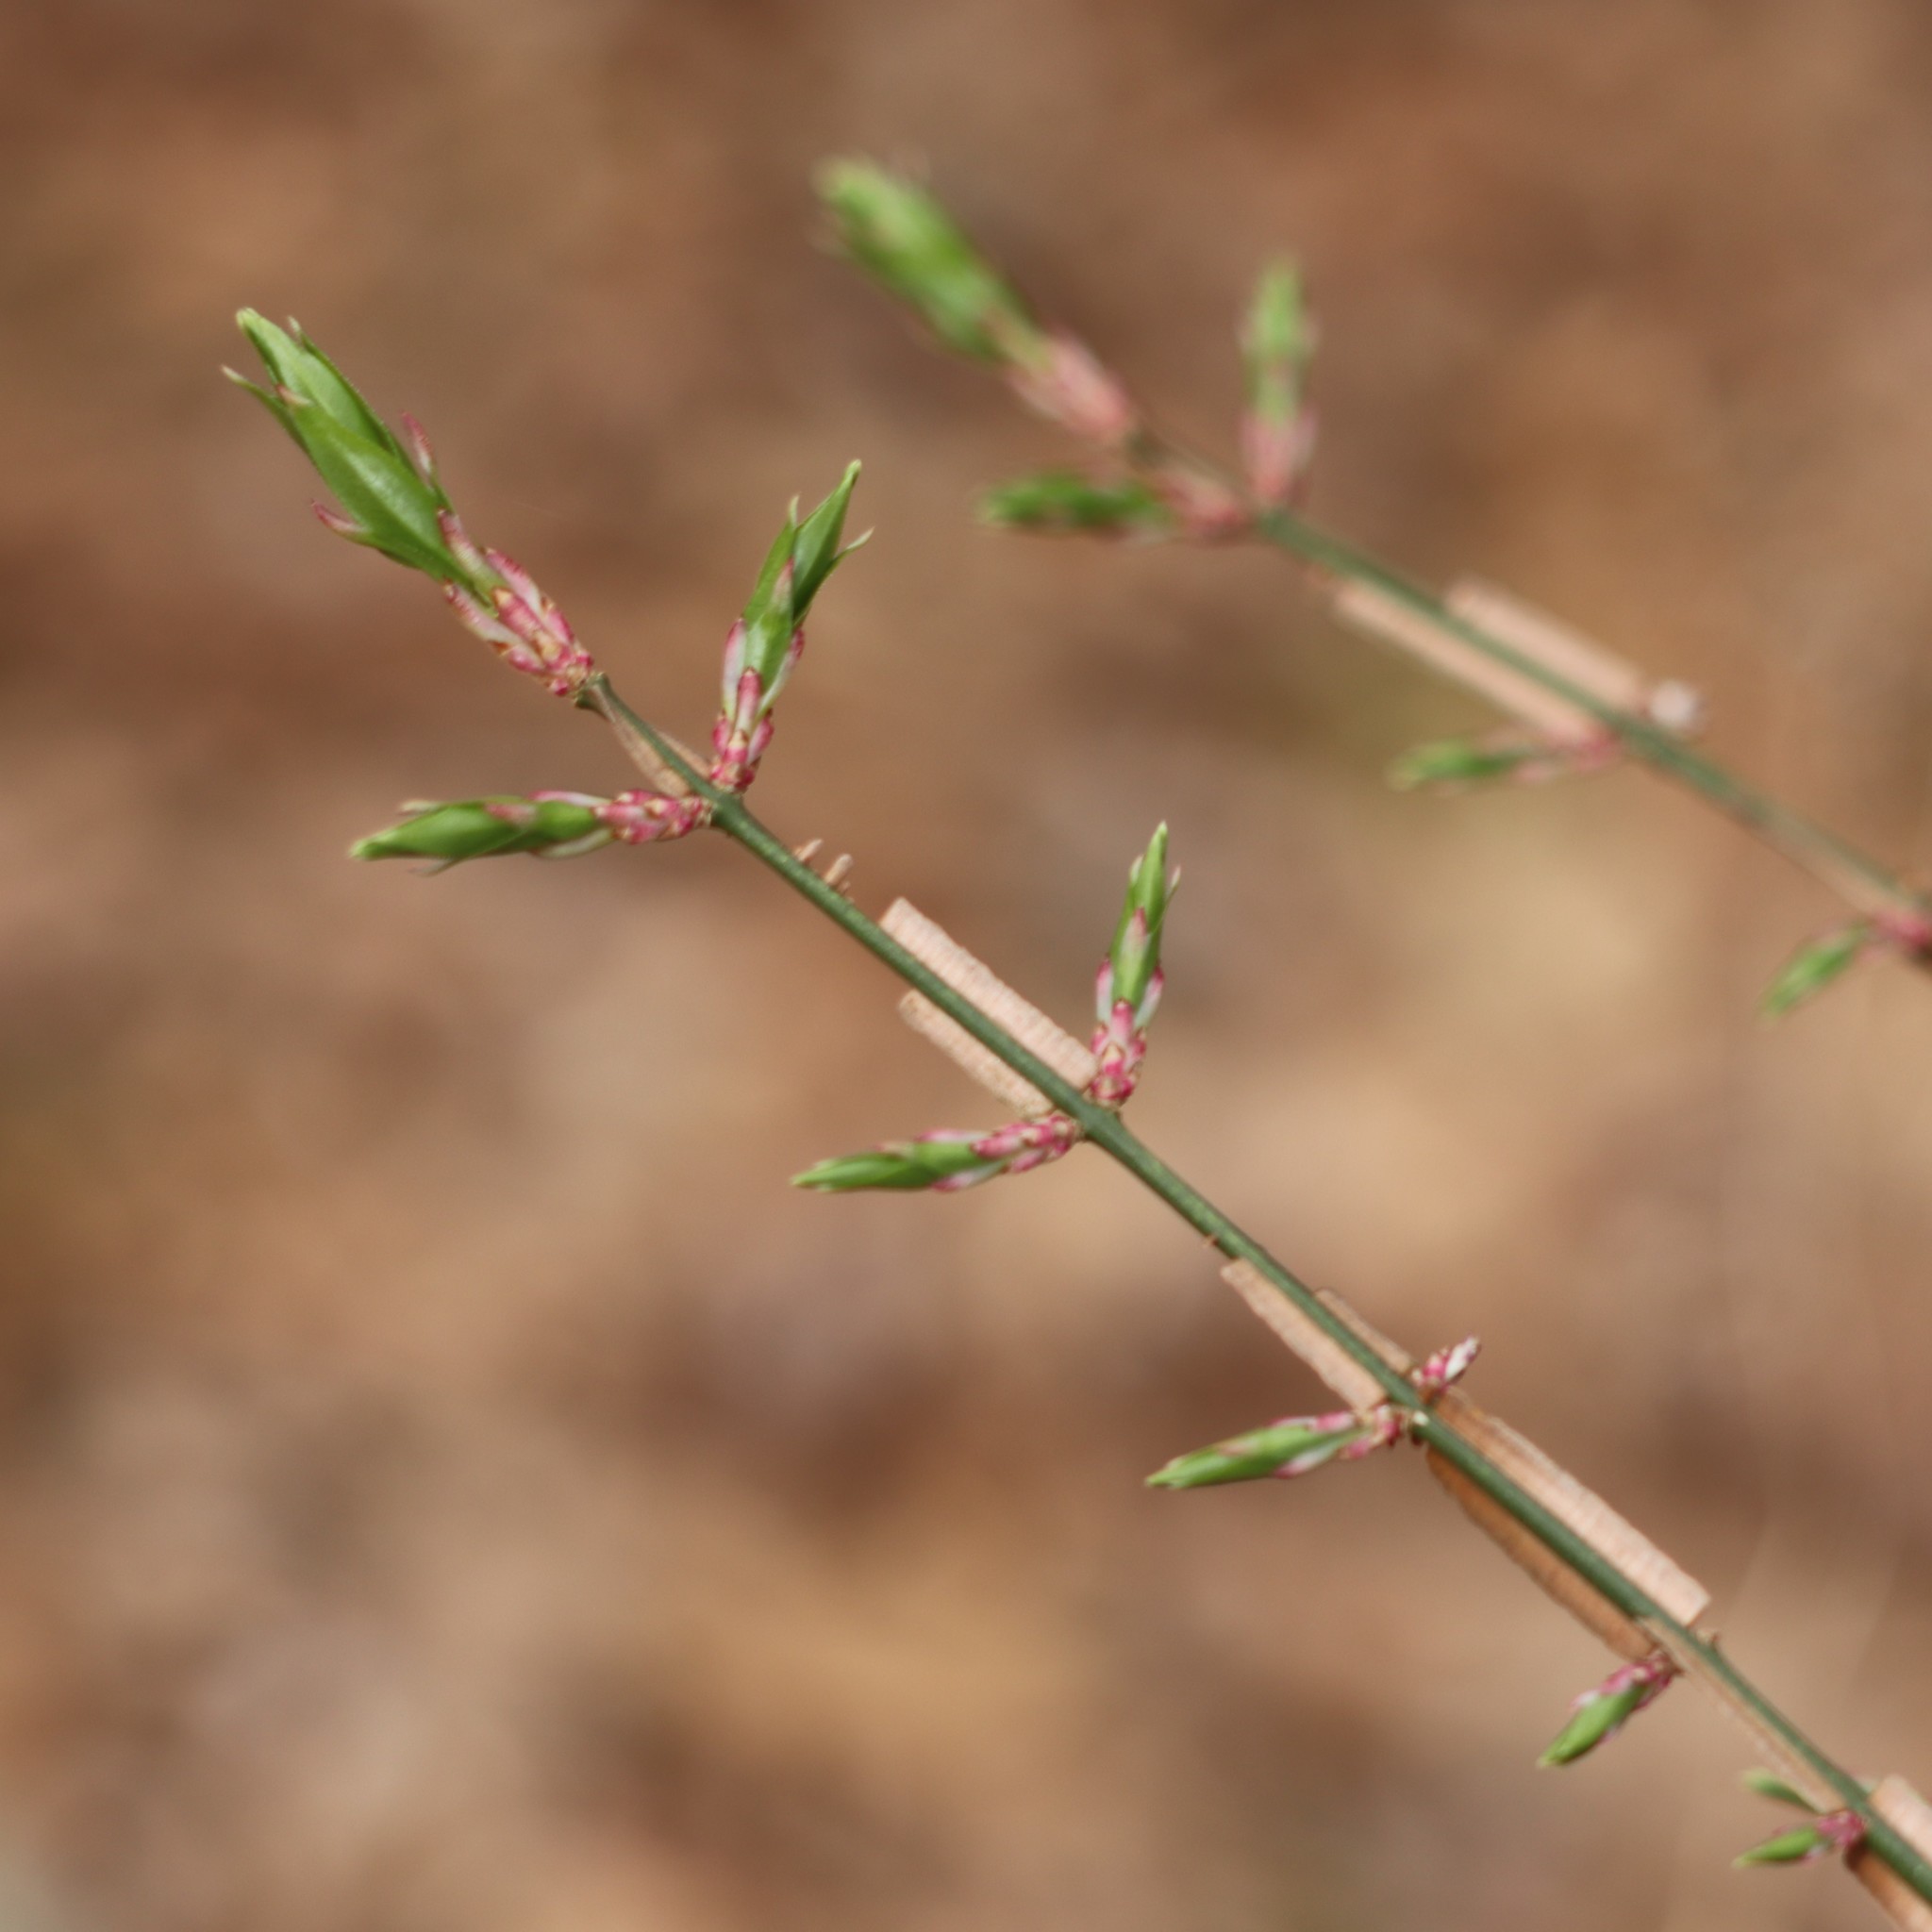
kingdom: Plantae
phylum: Tracheophyta
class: Magnoliopsida
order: Celastrales
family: Celastraceae
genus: Euonymus
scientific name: Euonymus alatus
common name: Winged euonymus
